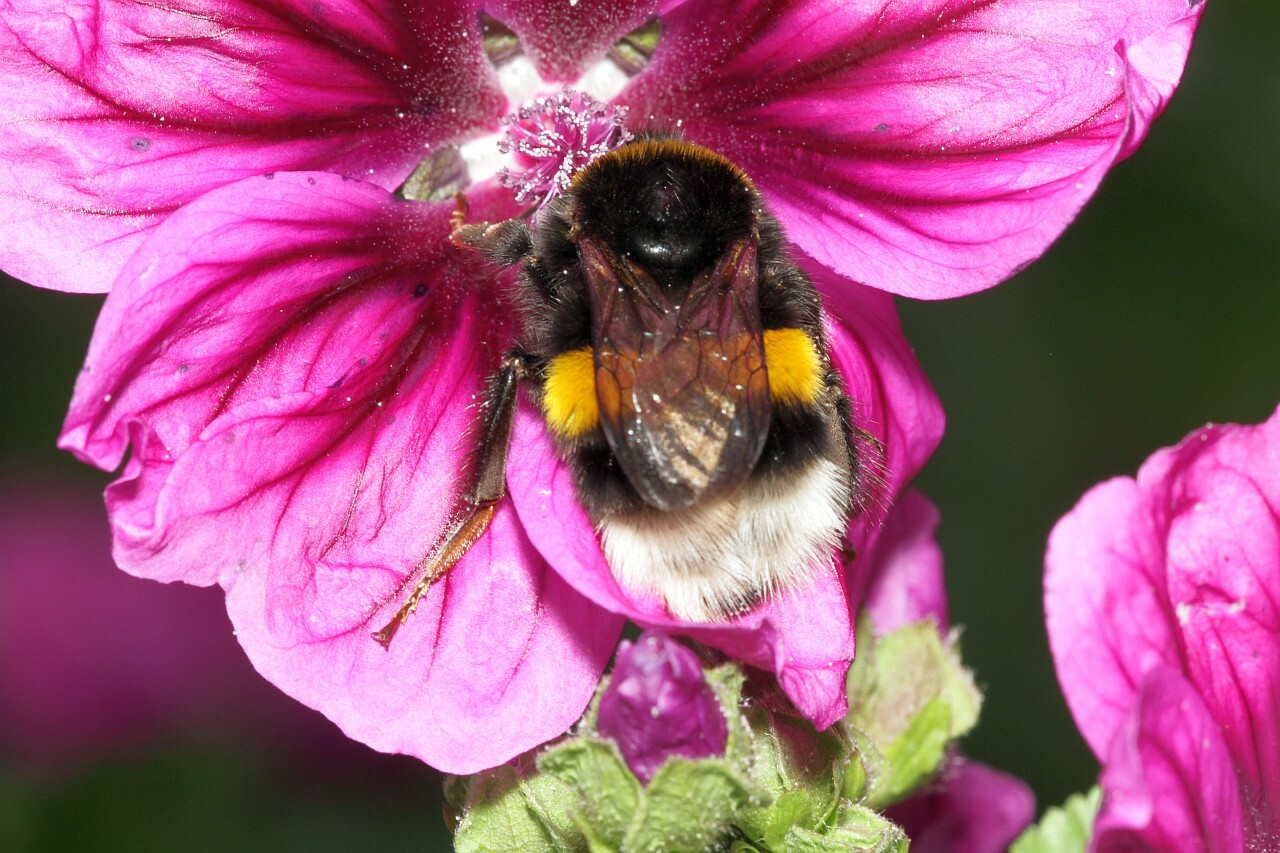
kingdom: Animalia
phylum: Arthropoda
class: Insecta
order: Hymenoptera
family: Apidae
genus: Bombus
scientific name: Bombus terrestris
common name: Buff-tailed bumblebee
